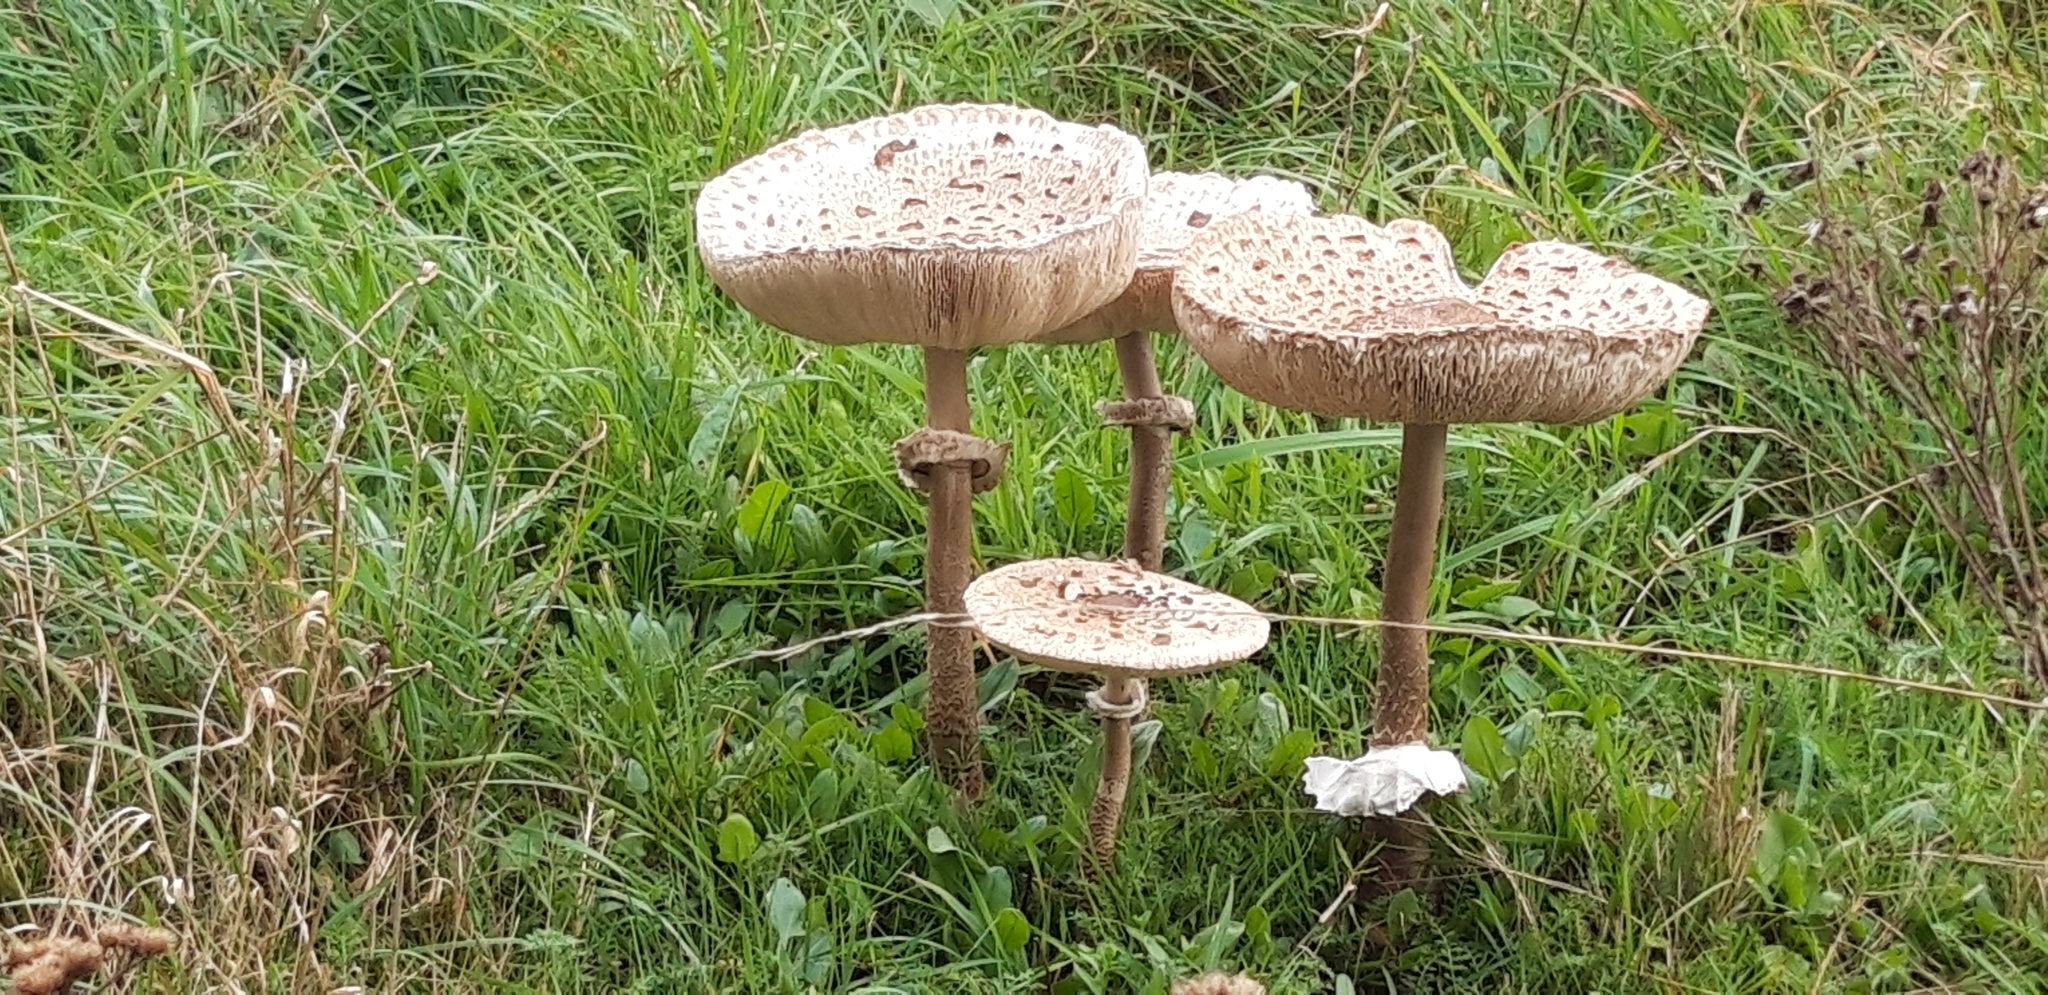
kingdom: Fungi
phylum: Basidiomycota
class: Agaricomycetes
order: Agaricales
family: Agaricaceae
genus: Macrolepiota
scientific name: Macrolepiota procera
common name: Parasol
